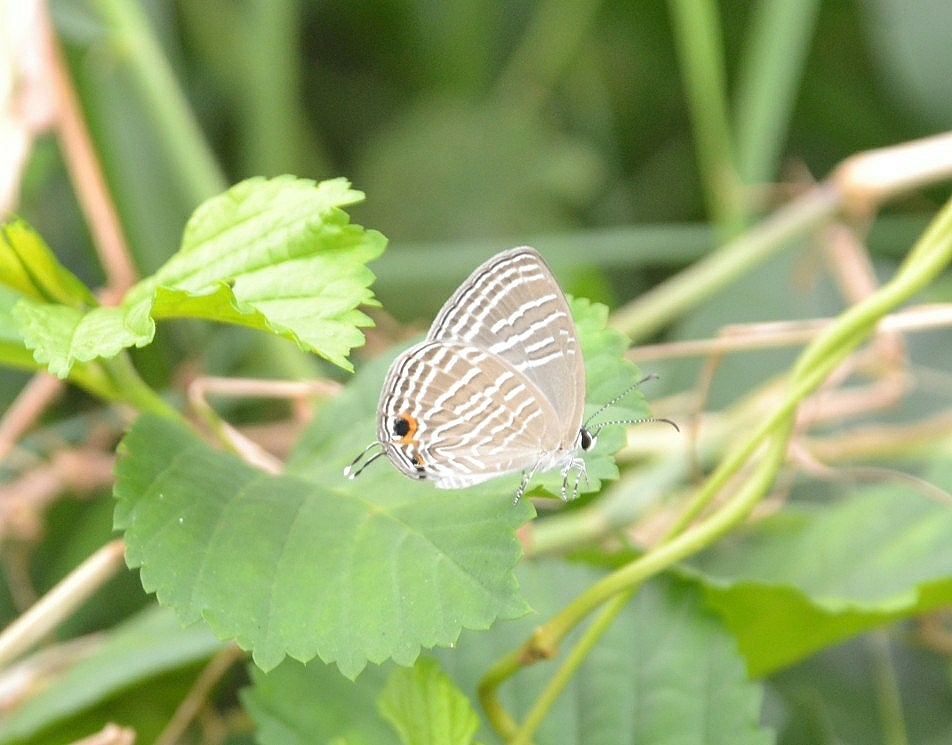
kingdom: Animalia
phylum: Arthropoda
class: Insecta
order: Lepidoptera
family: Lycaenidae
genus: Jamides
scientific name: Jamides celeno
